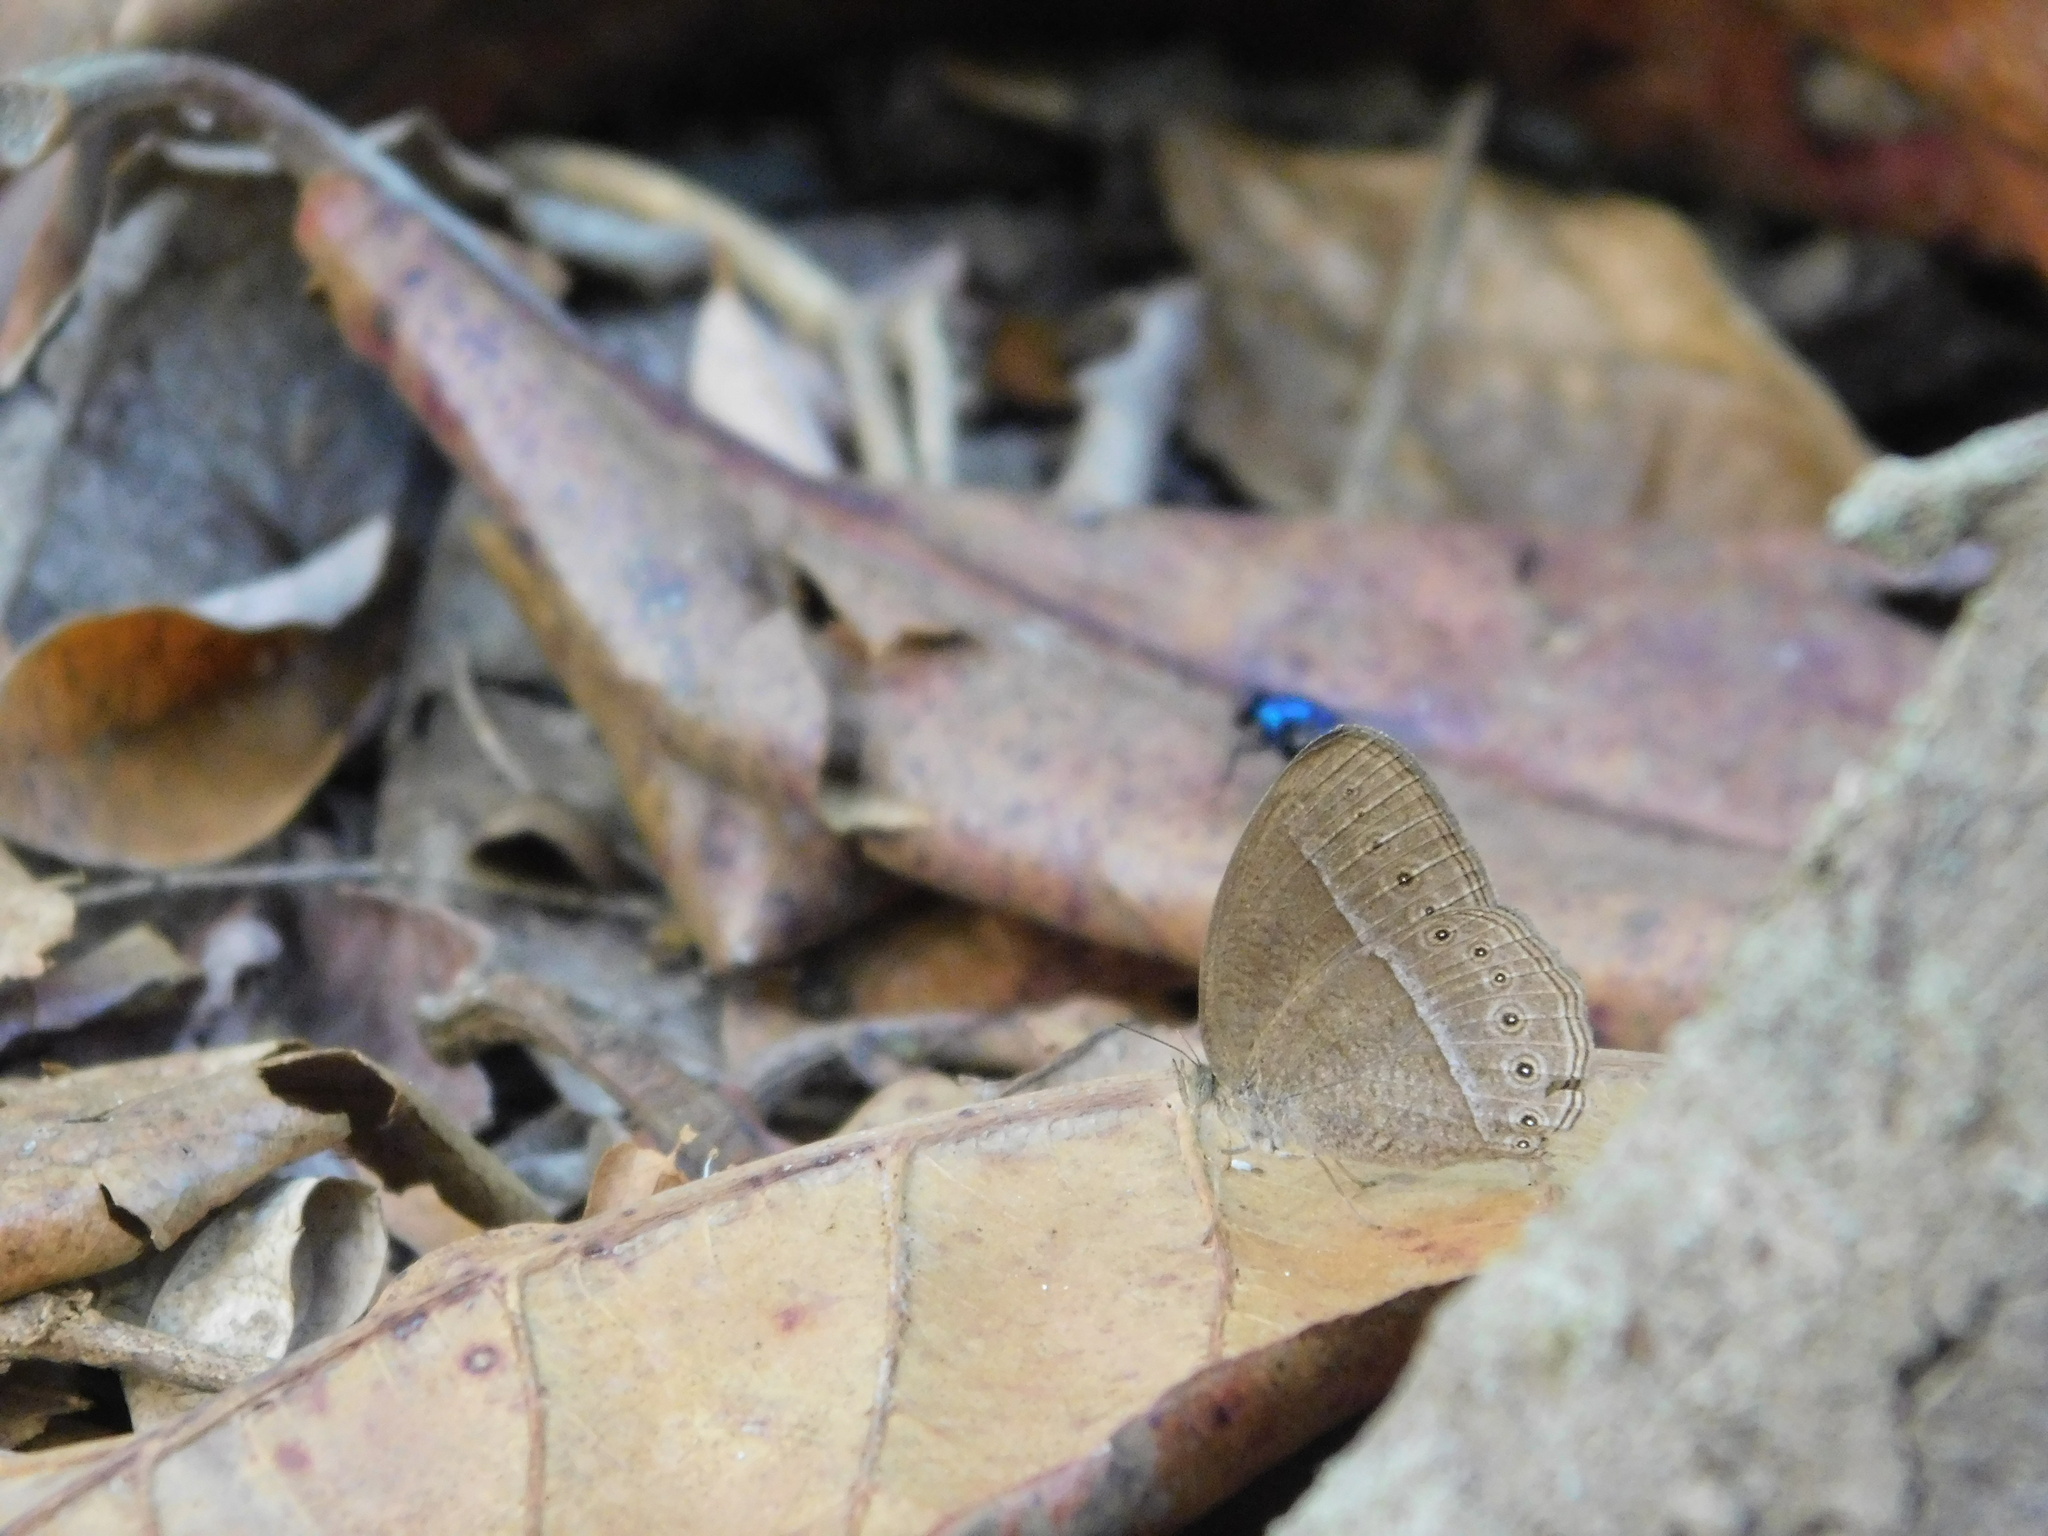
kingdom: Animalia
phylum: Arthropoda
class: Insecta
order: Lepidoptera
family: Nymphalidae
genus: Mycalesis
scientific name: Mycalesis Telinga janardana
